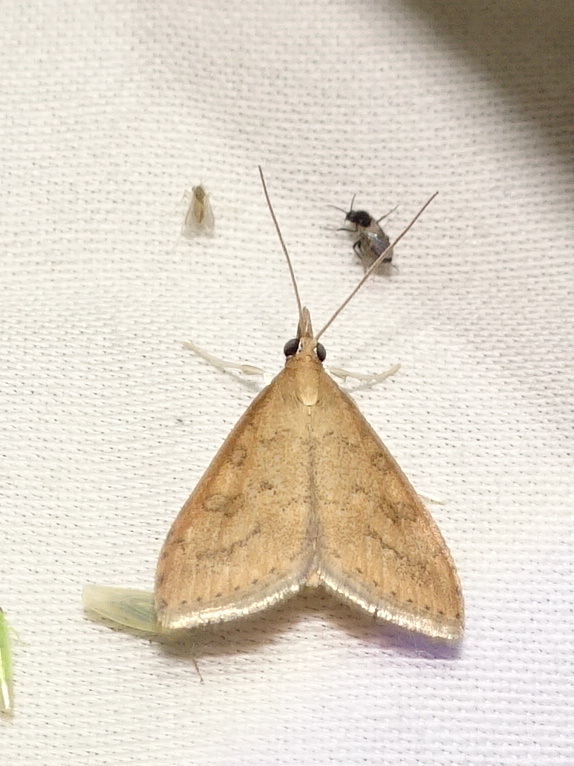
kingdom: Animalia
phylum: Arthropoda
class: Insecta
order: Lepidoptera
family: Crambidae
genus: Udea
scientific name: Udea rubigalis
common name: Celery leaftier moth
